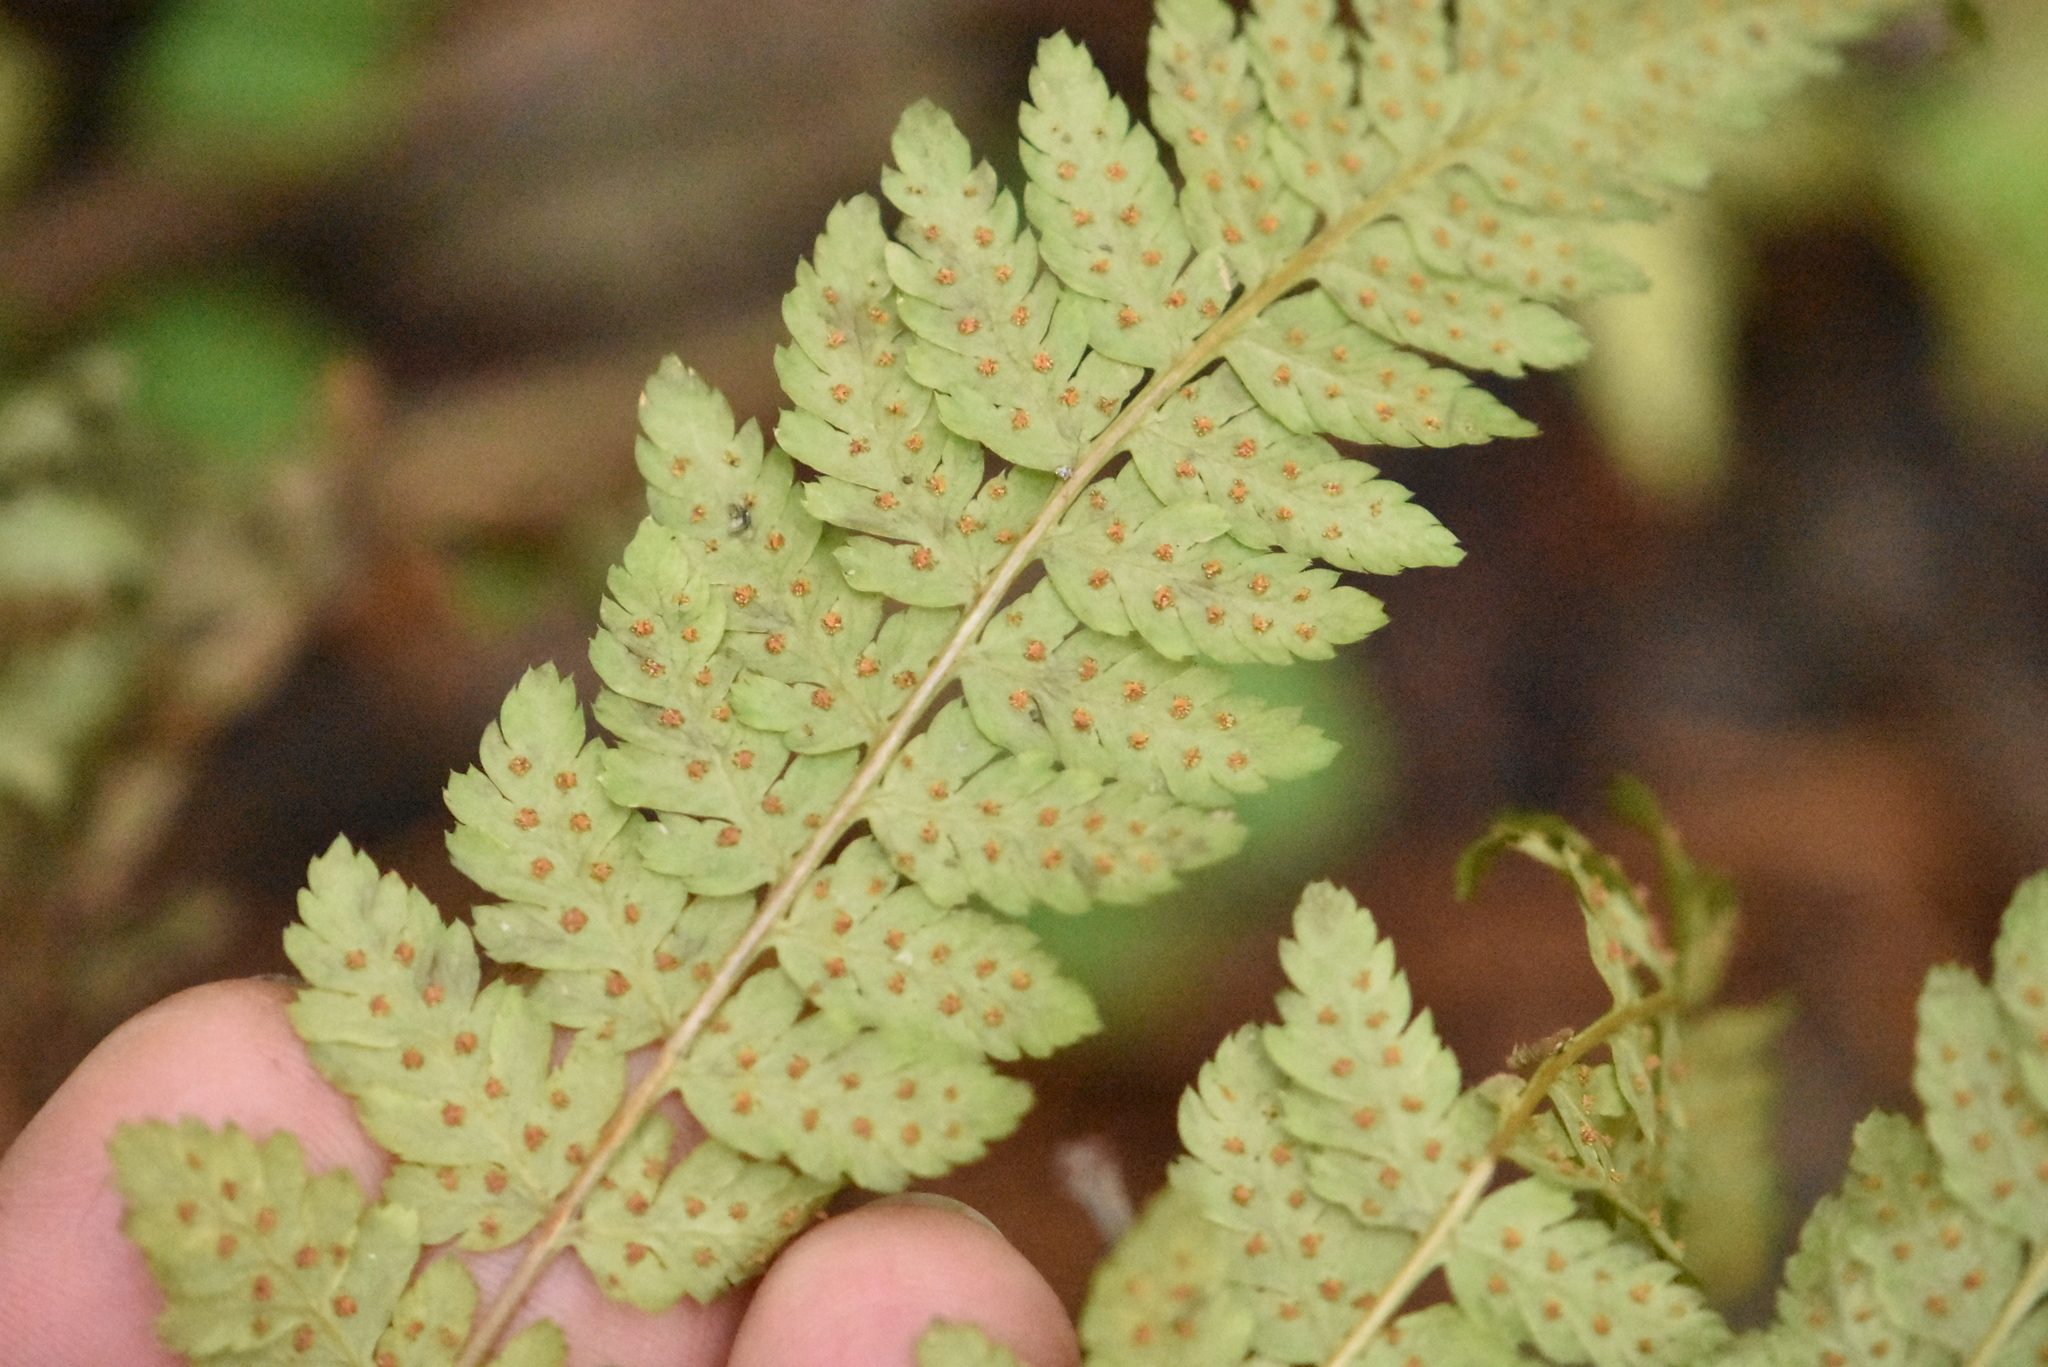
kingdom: Plantae
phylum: Tracheophyta
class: Polypodiopsida
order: Polypodiales
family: Dryopteridaceae
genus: Dryopteris
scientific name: Dryopteris expansa
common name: Northern buckler fern
